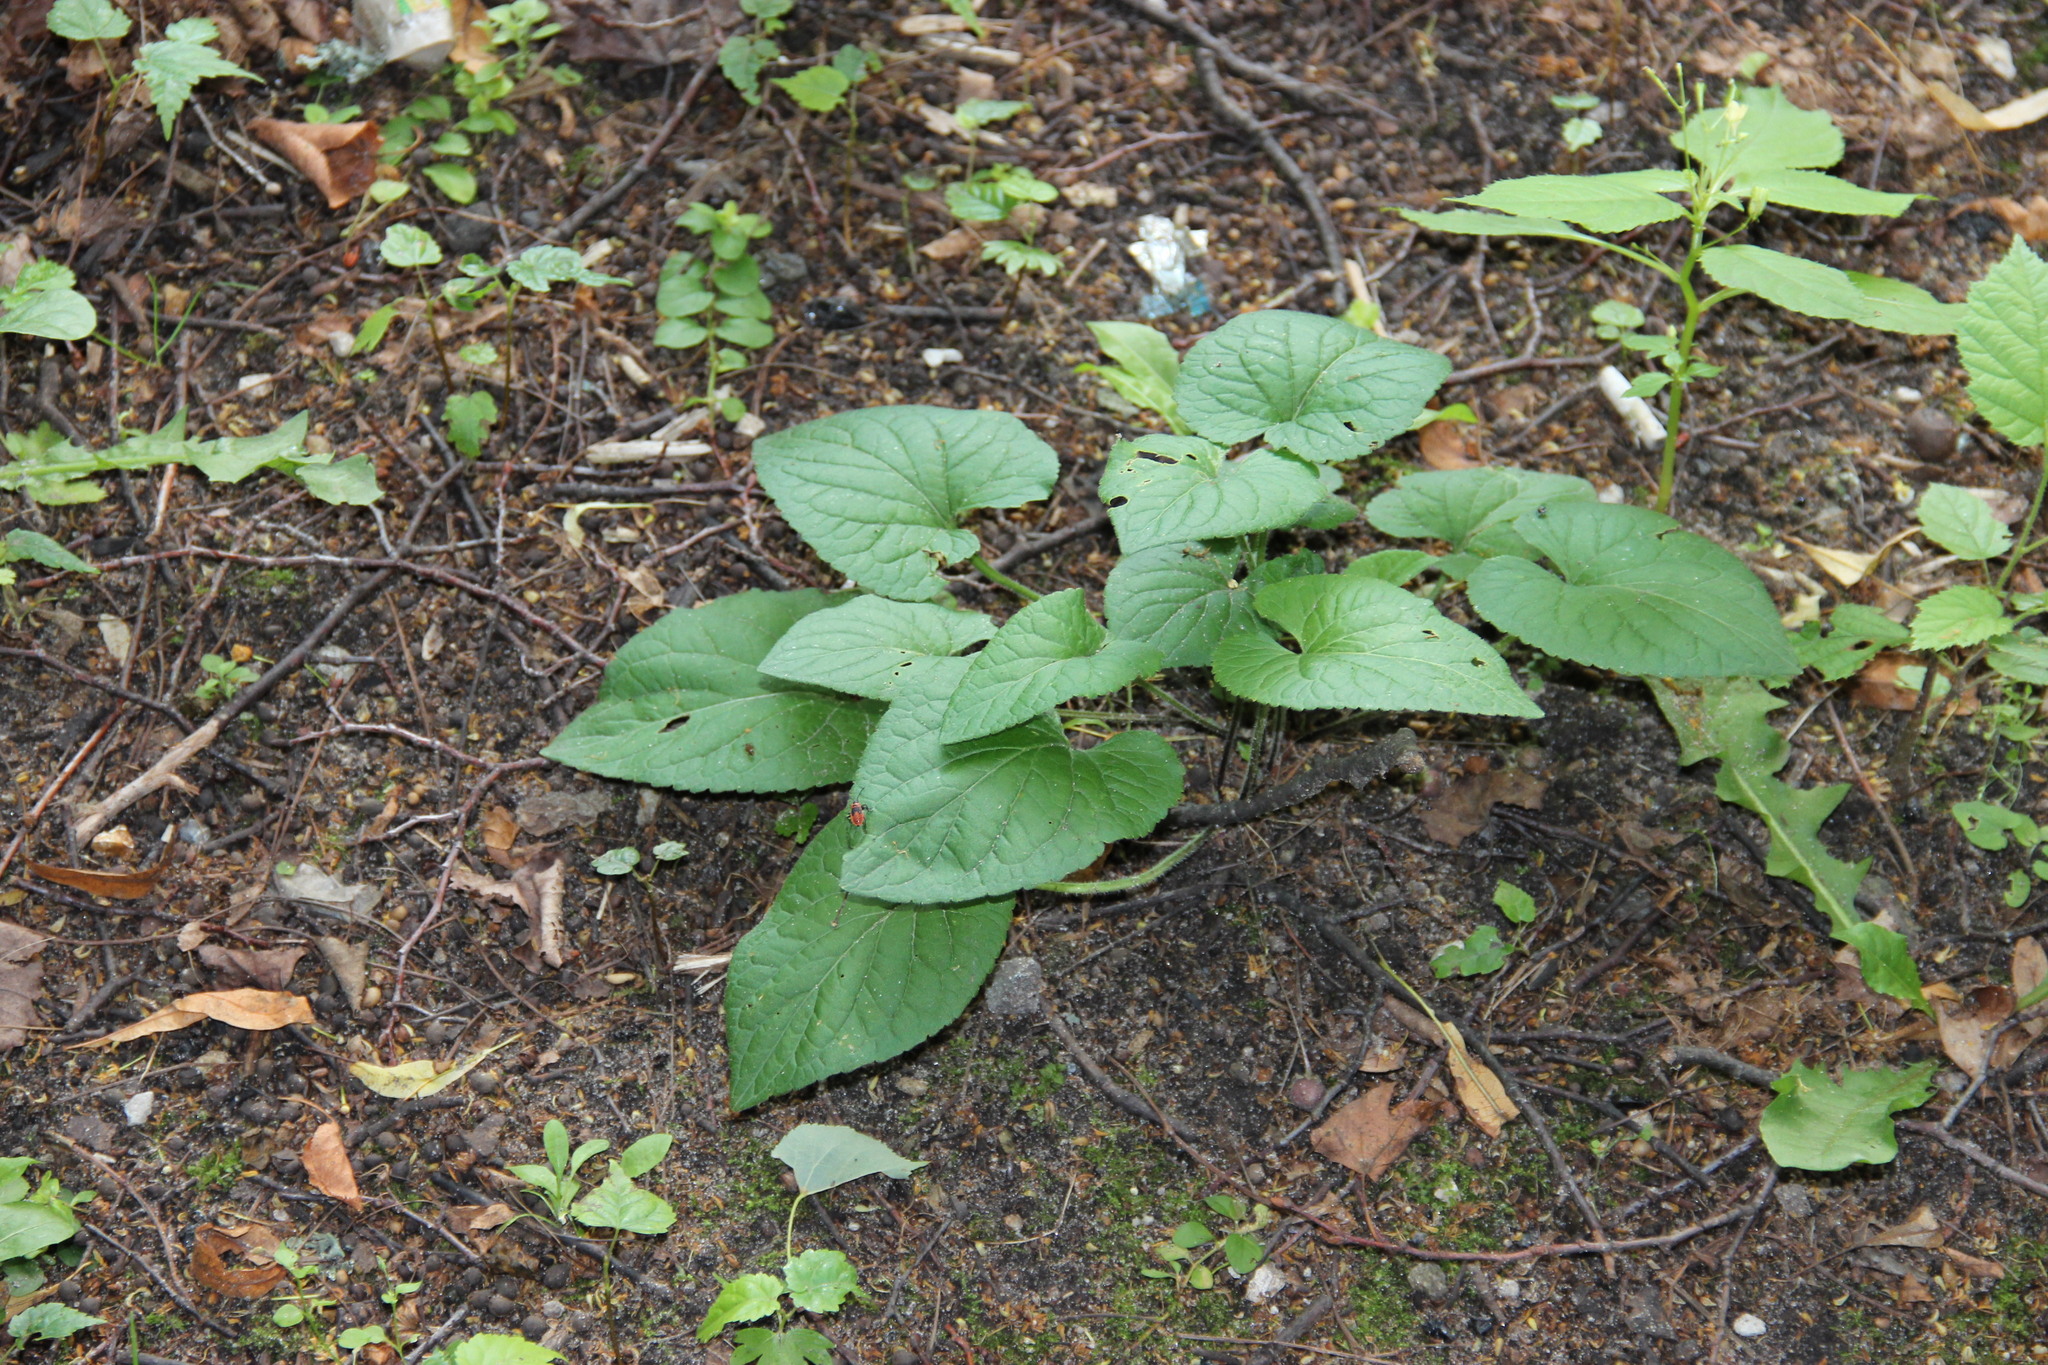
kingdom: Plantae
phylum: Tracheophyta
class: Magnoliopsida
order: Malpighiales
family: Violaceae
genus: Viola
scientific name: Viola hirta
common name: Hairy violet
